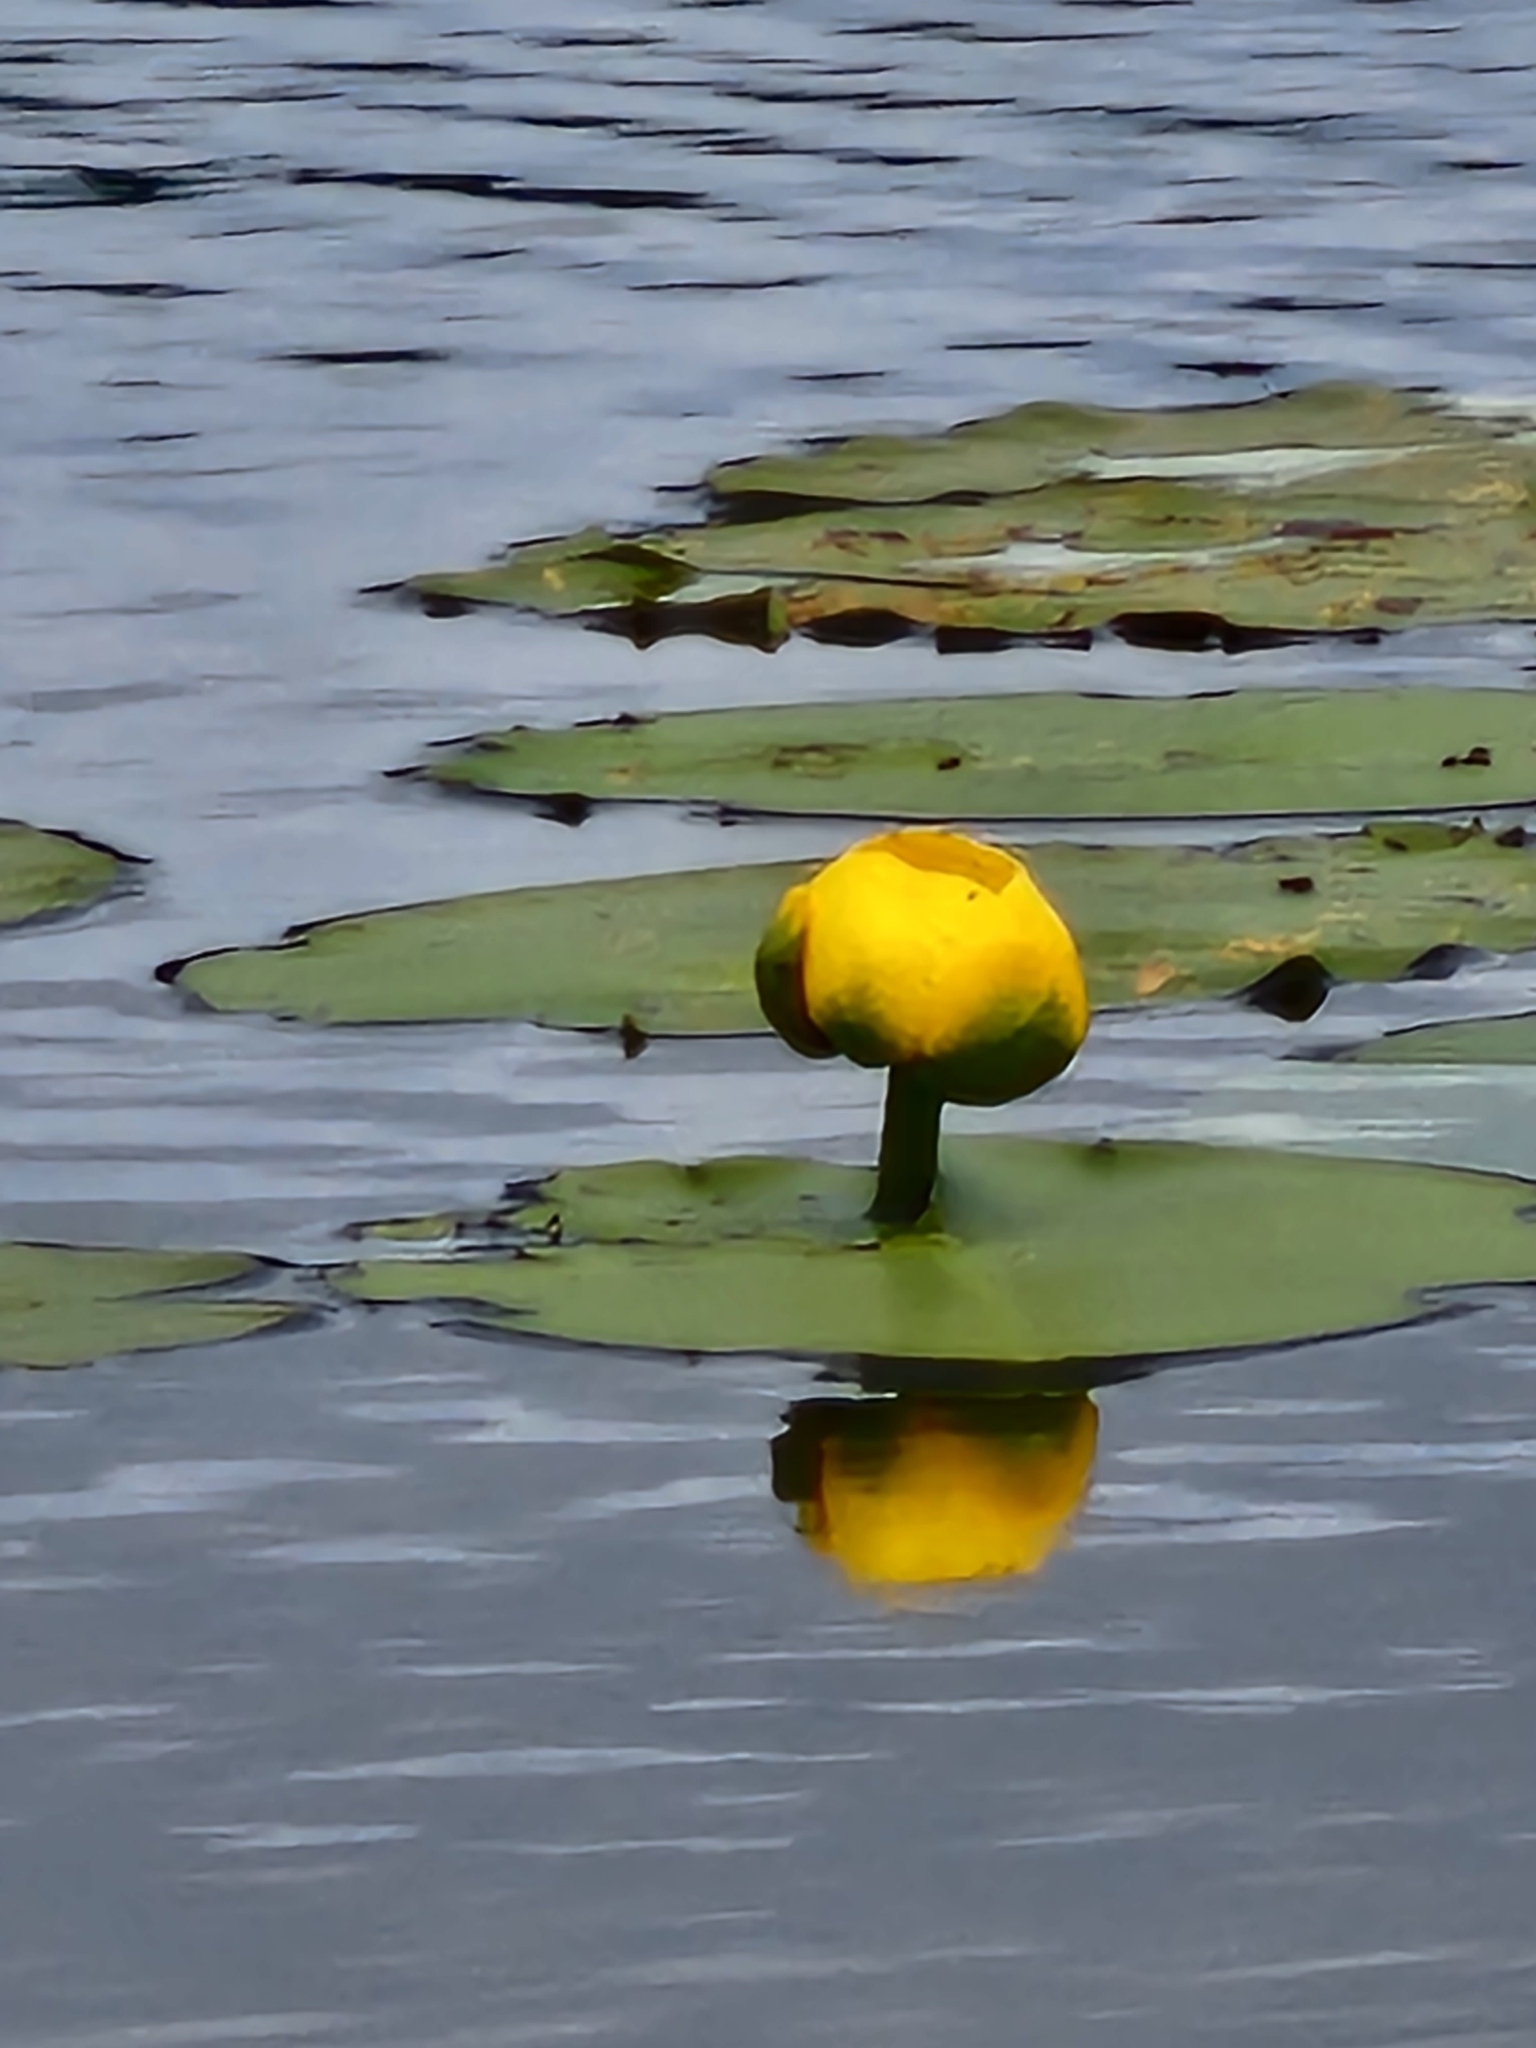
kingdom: Plantae
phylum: Tracheophyta
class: Magnoliopsida
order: Nymphaeales
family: Nymphaeaceae
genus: Nuphar
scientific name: Nuphar variegata
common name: Beaver-root
